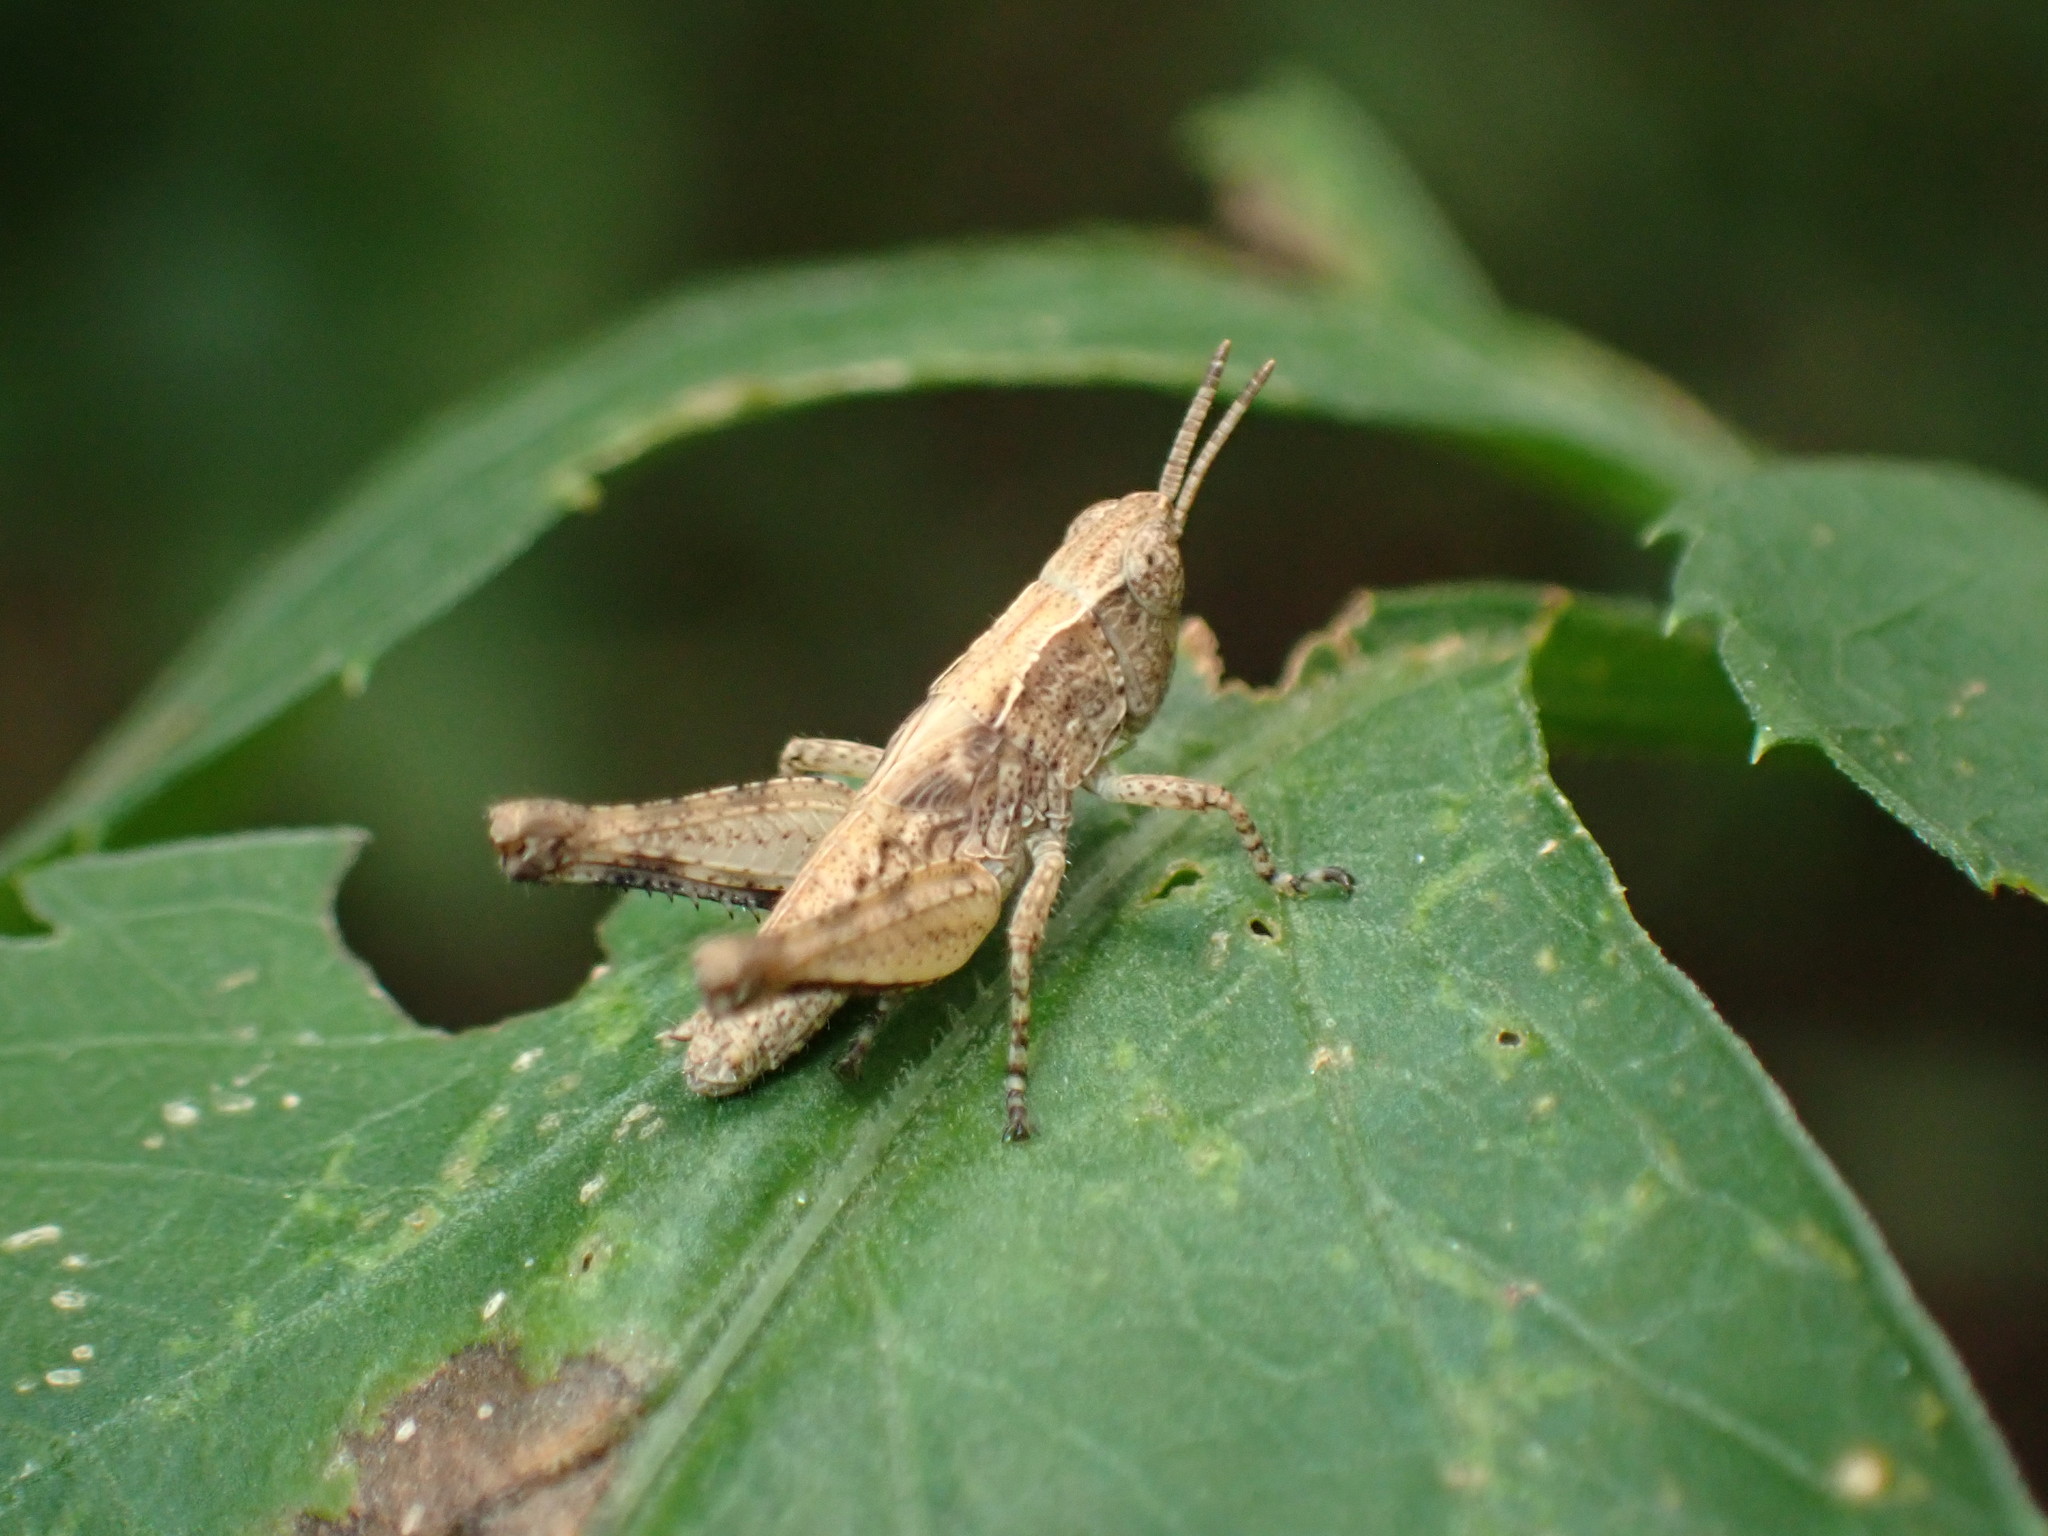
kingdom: Animalia
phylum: Arthropoda
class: Insecta
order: Orthoptera
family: Acrididae
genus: Orphulella
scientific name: Orphulella punctata
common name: Slant-faced grasshopper
